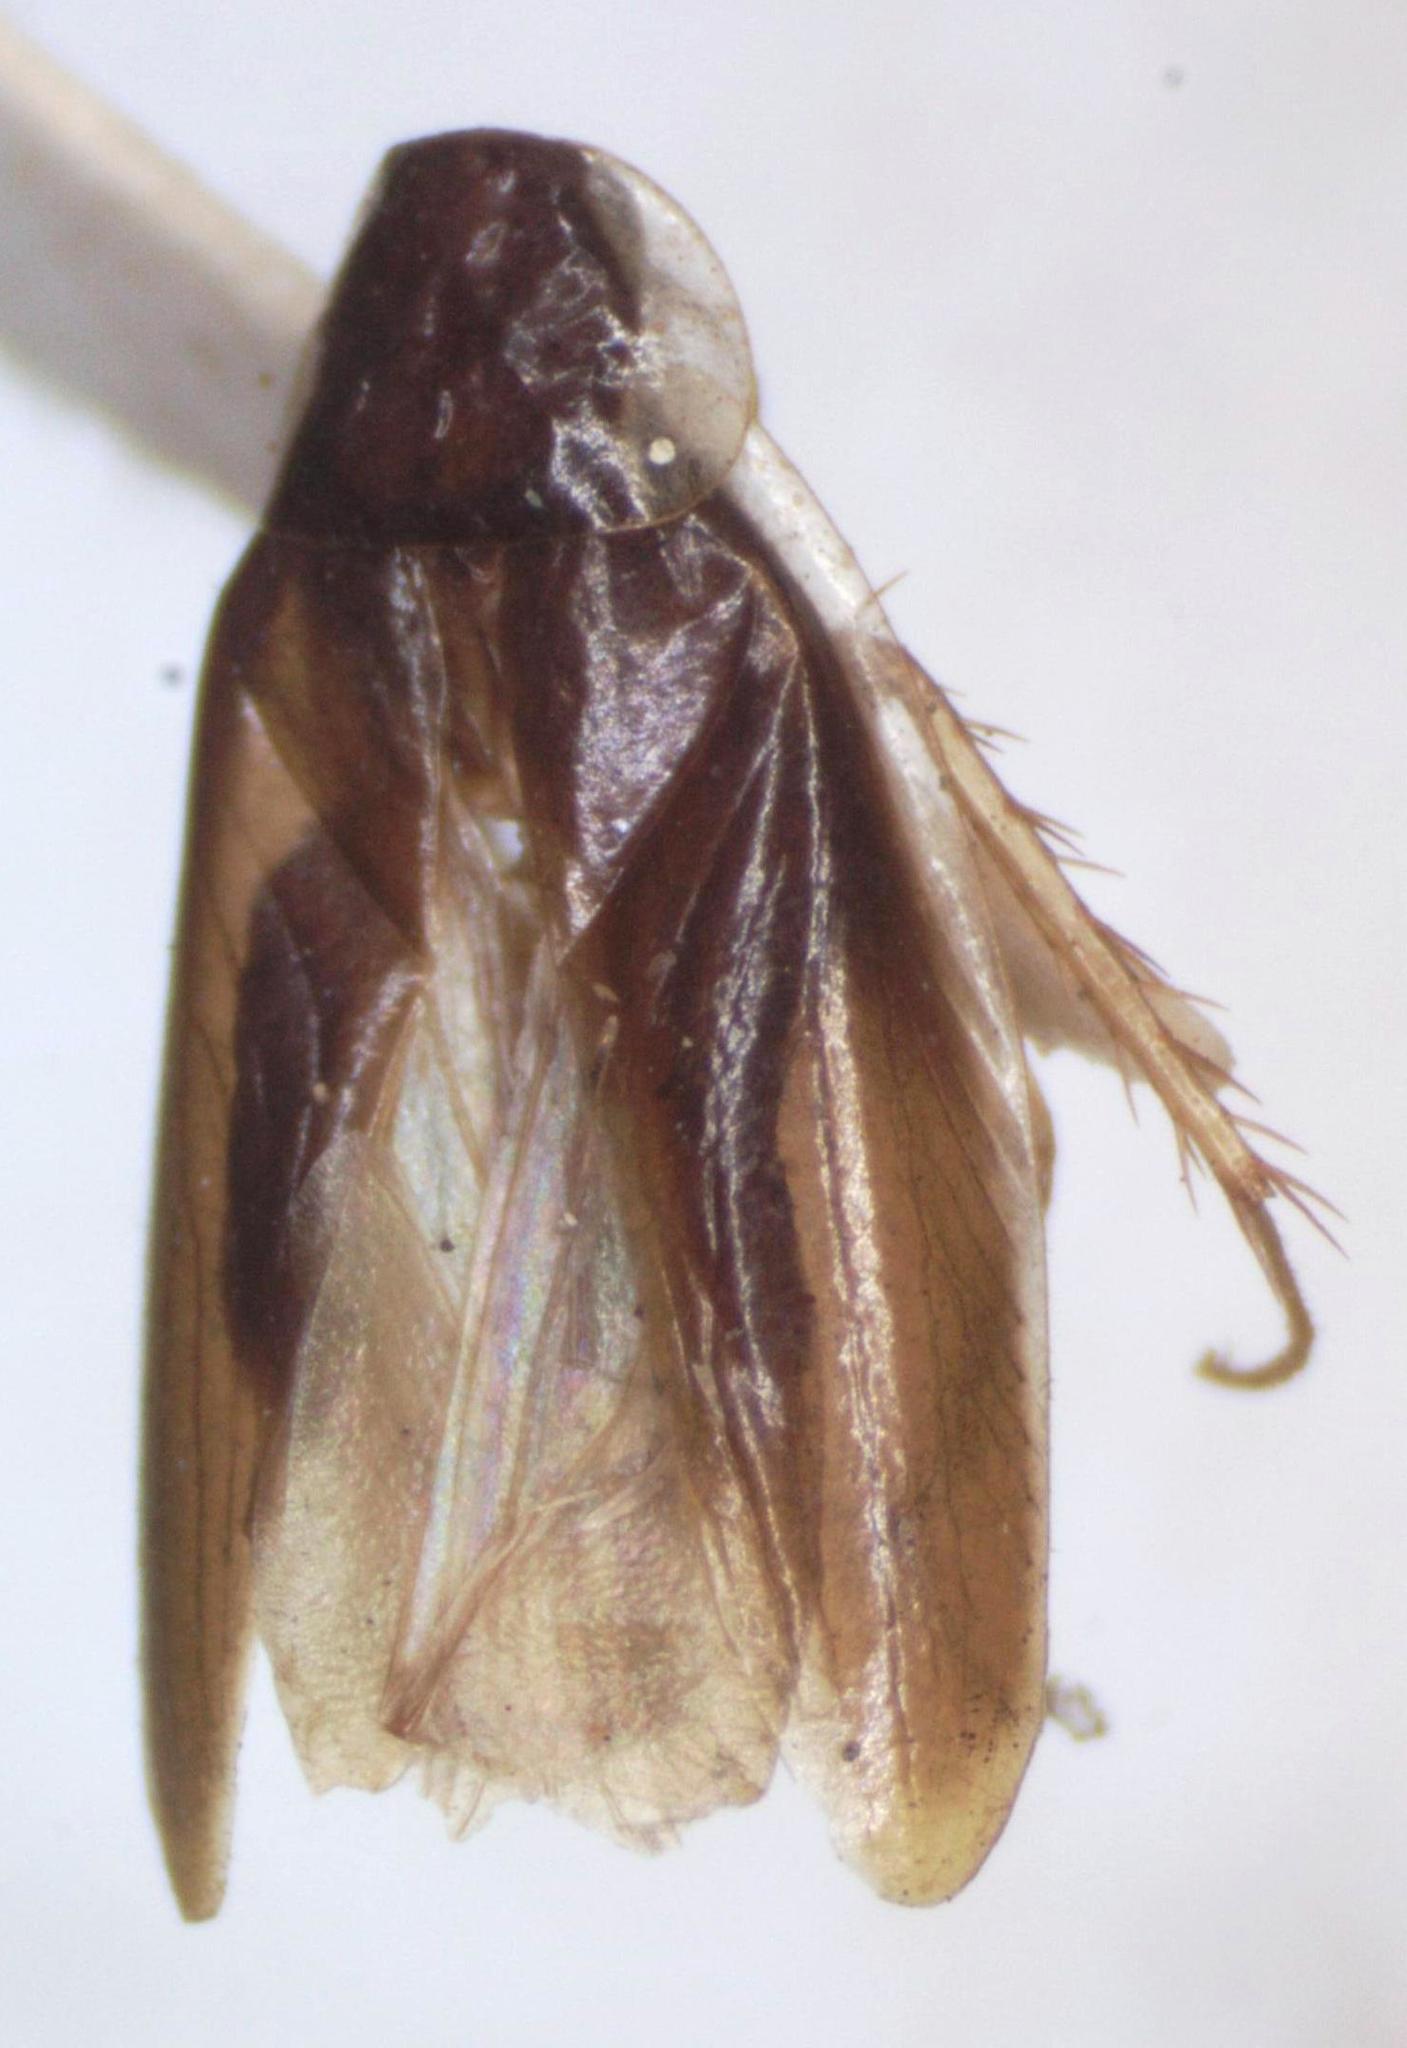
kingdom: Animalia
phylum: Arthropoda
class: Insecta
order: Blattodea
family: Anaplectidae
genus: Anaplecta
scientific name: Anaplecta fallax
